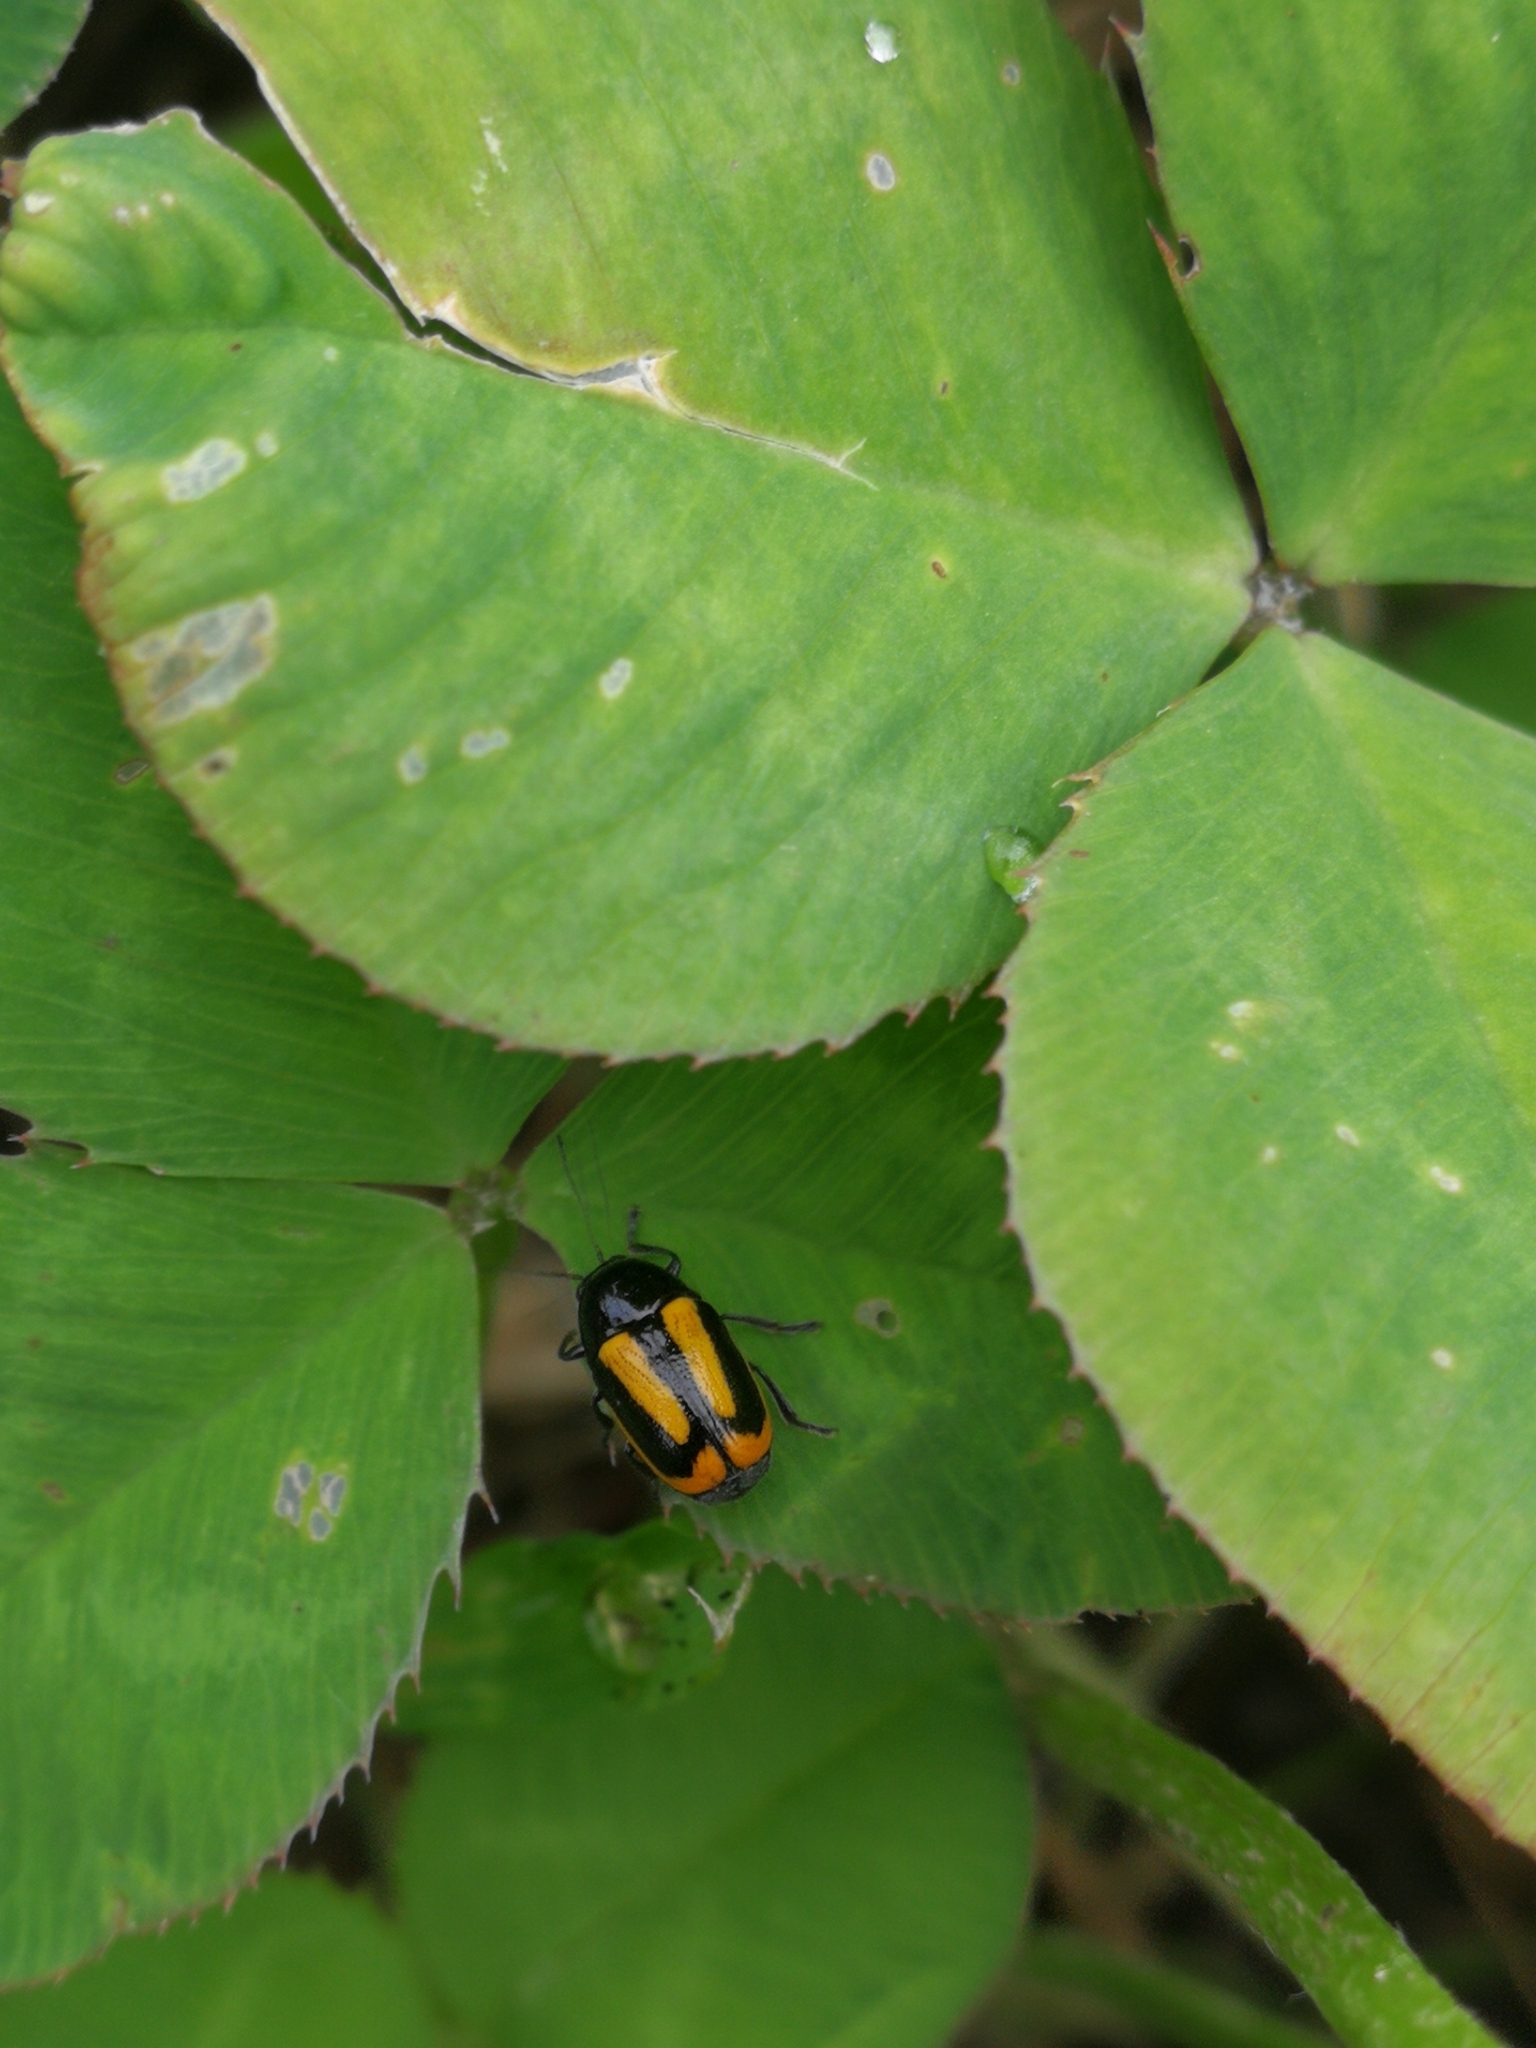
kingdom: Animalia
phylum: Arthropoda
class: Insecta
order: Coleoptera
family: Chrysomelidae
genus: Acalymma
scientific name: Acalymma vittatum
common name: Striped cucumber beetle
